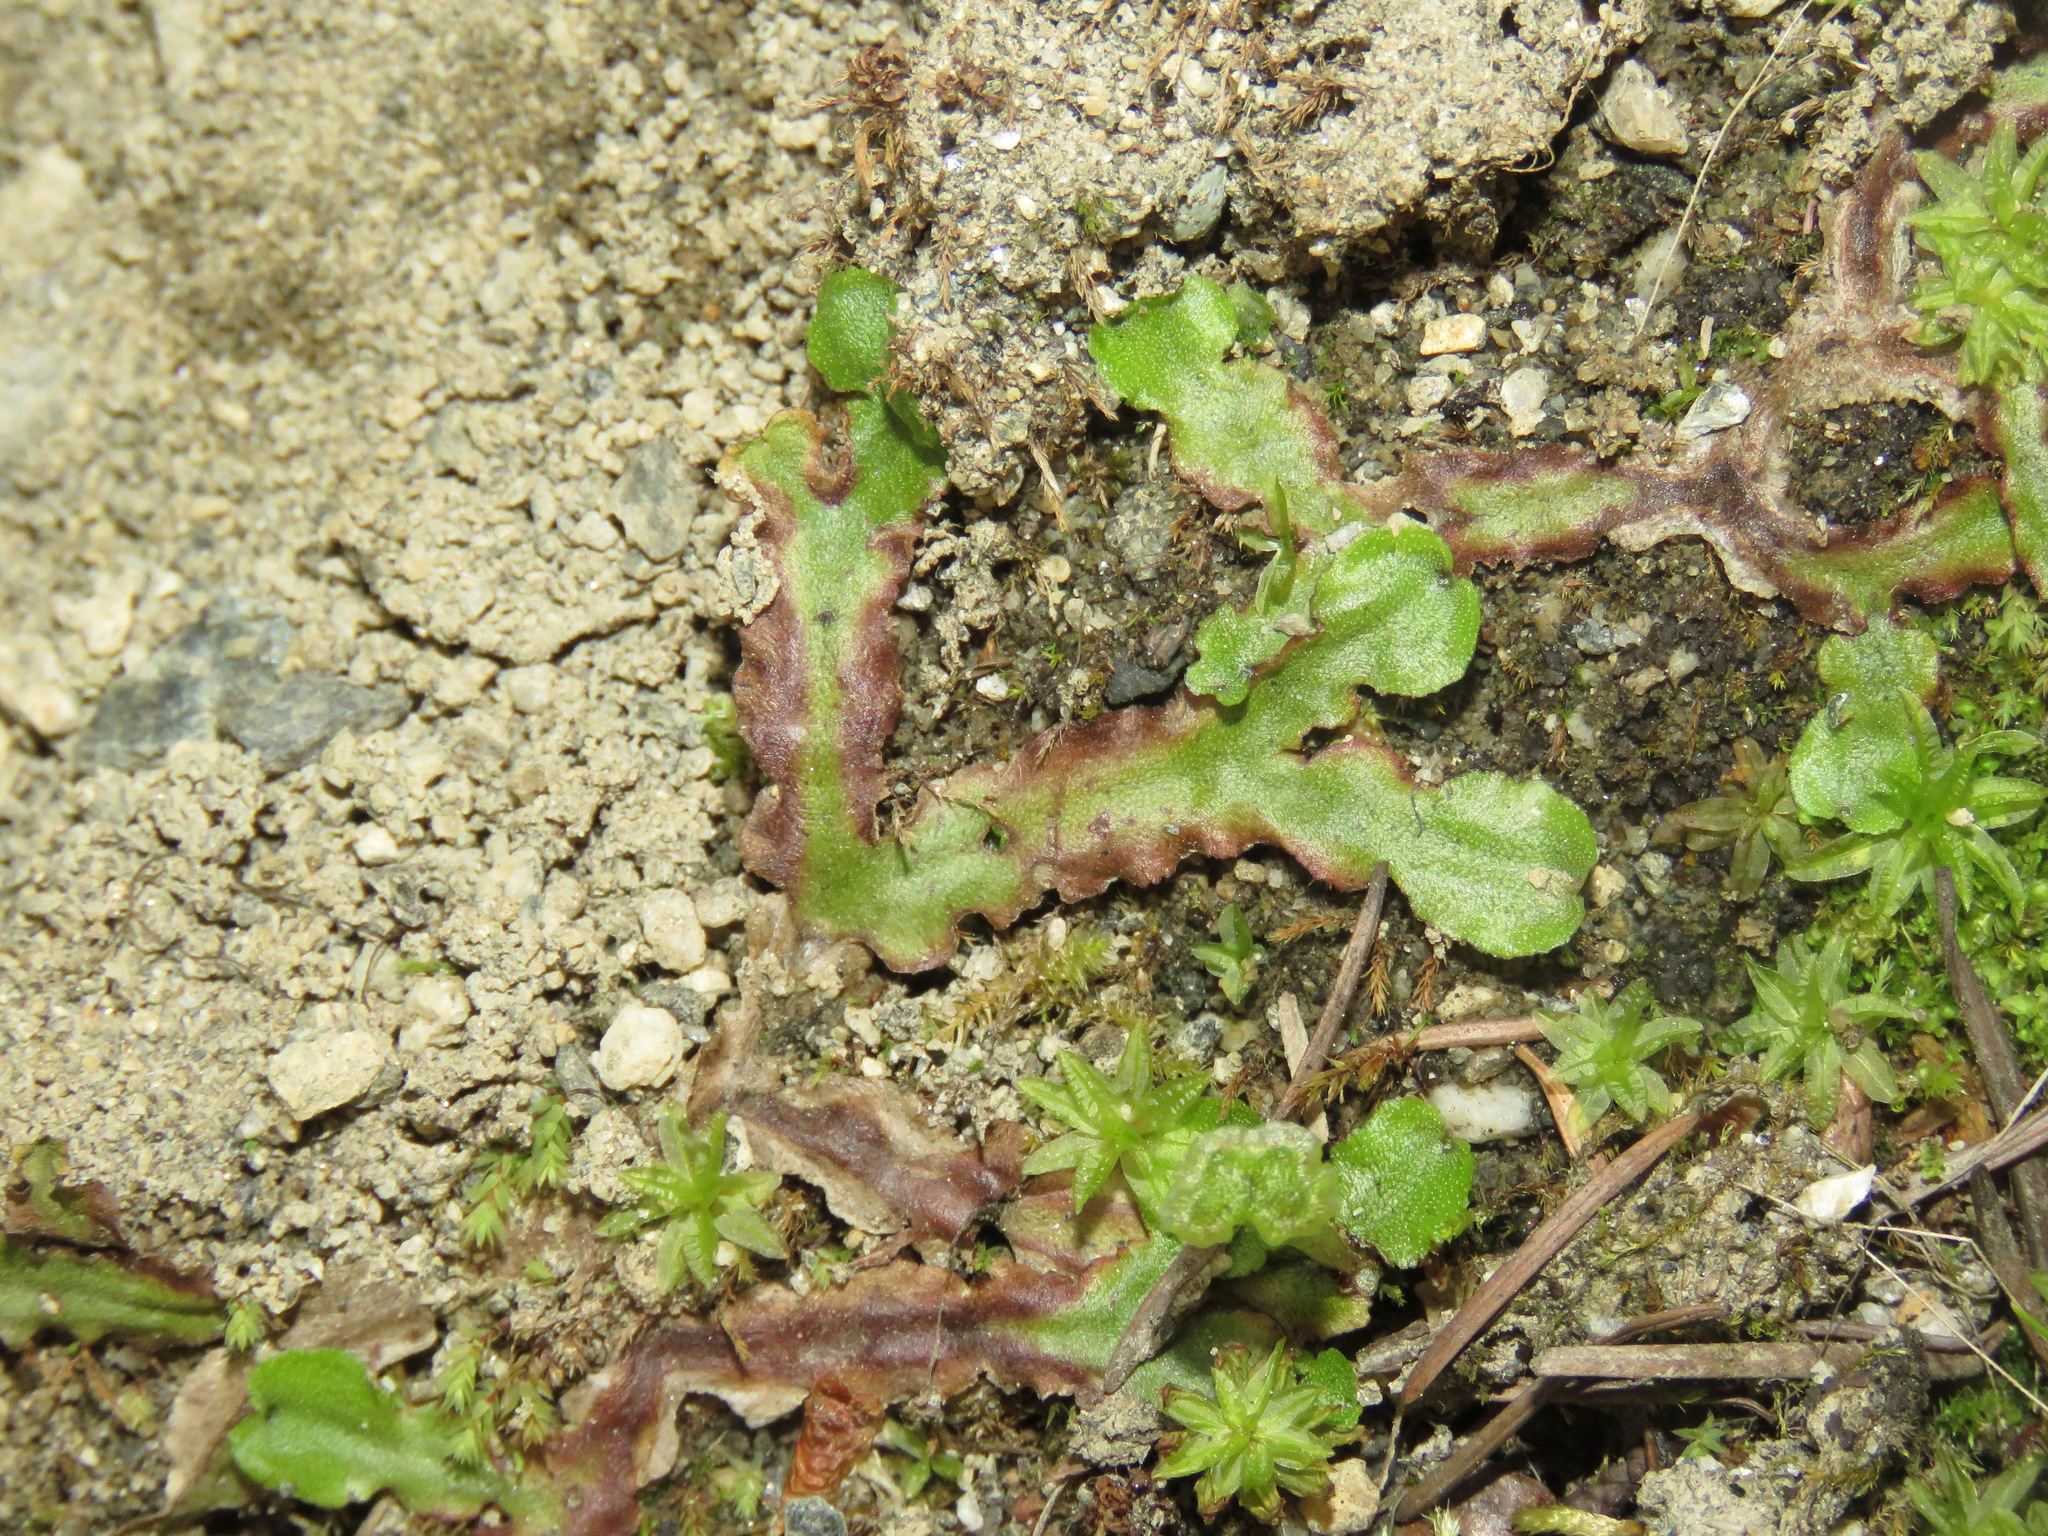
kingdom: Plantae
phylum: Marchantiophyta
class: Marchantiopsida
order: Marchantiales
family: Marchantiaceae
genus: Marchantia
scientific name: Marchantia quadrata
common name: Narrow mushroom-headed liverwort
